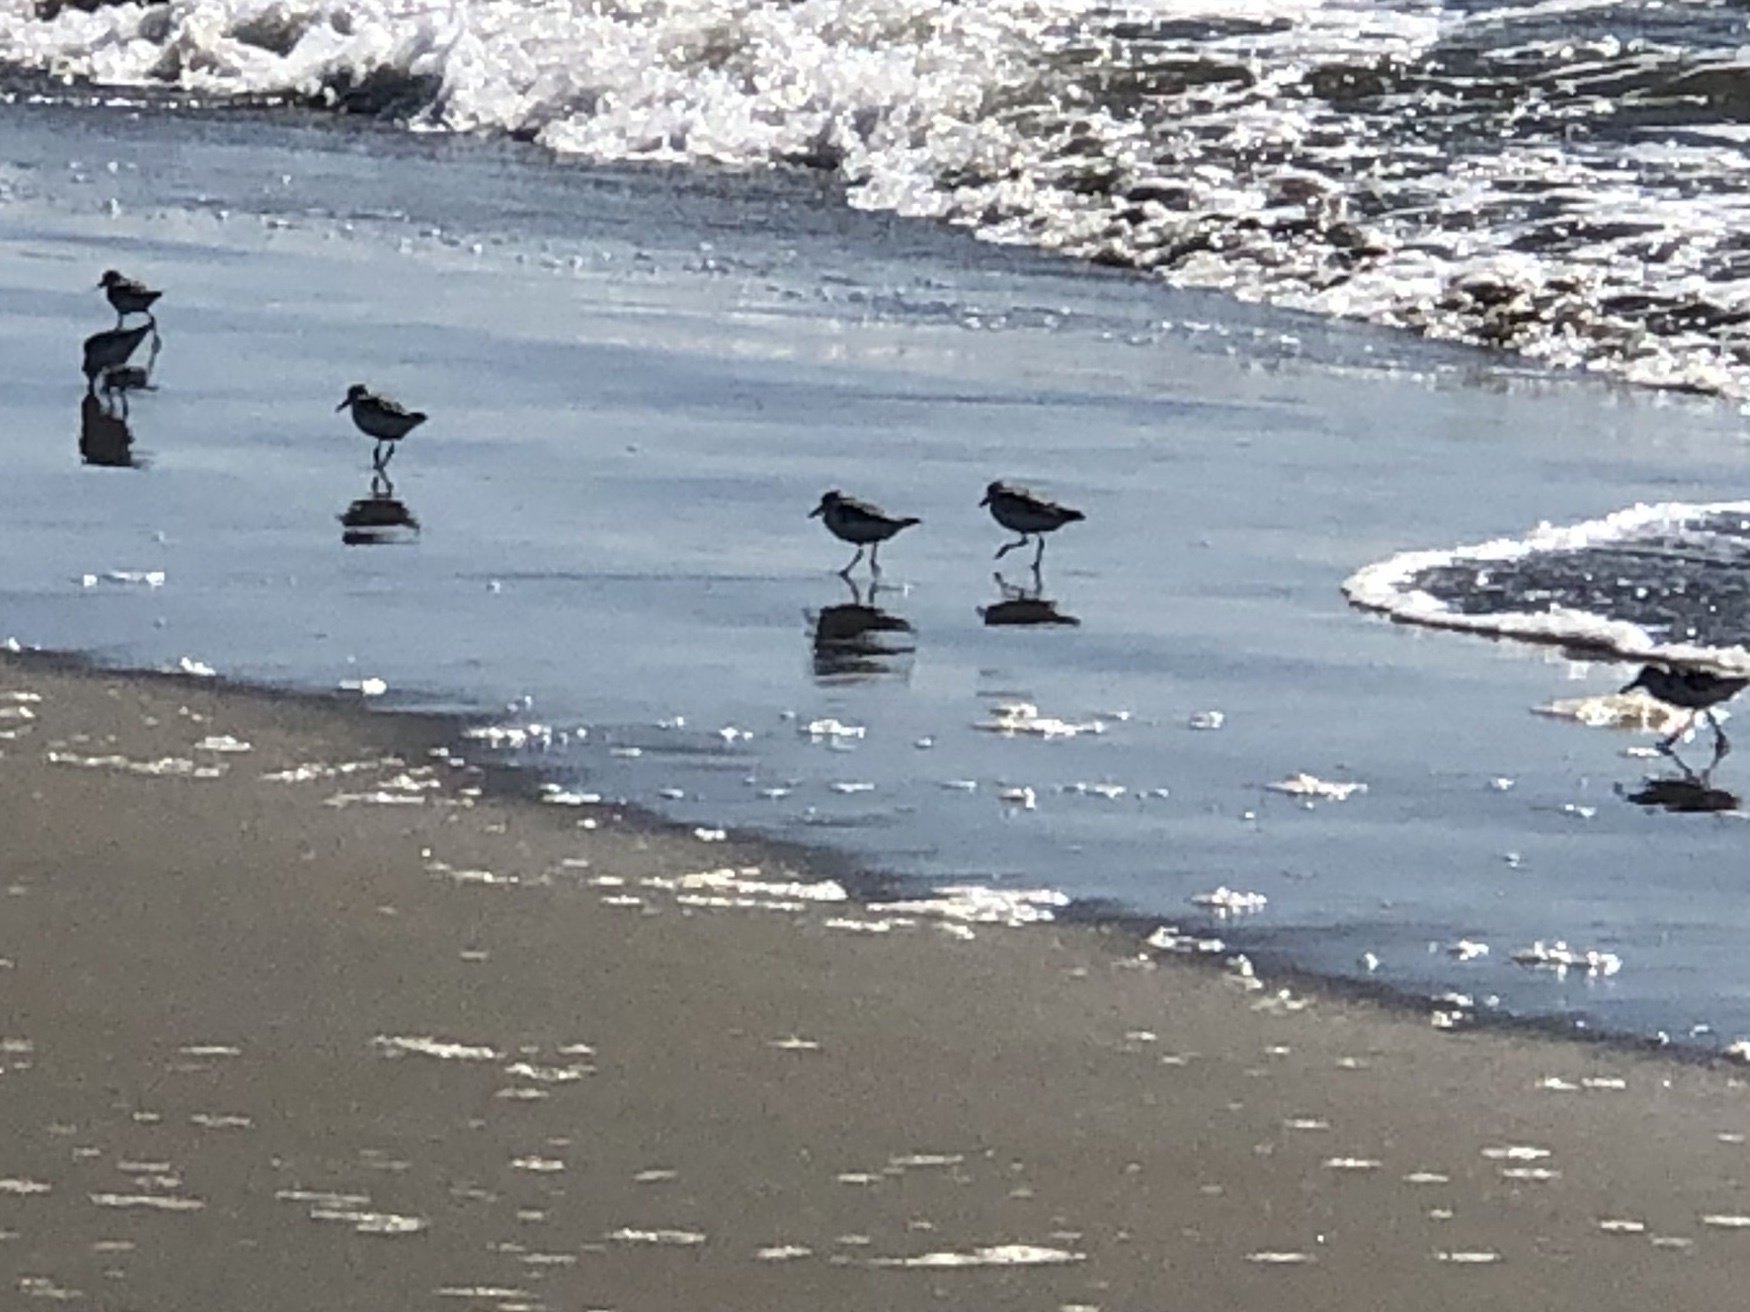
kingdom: Animalia
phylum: Chordata
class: Aves
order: Charadriiformes
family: Scolopacidae
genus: Calidris
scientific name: Calidris alba
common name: Sanderling
